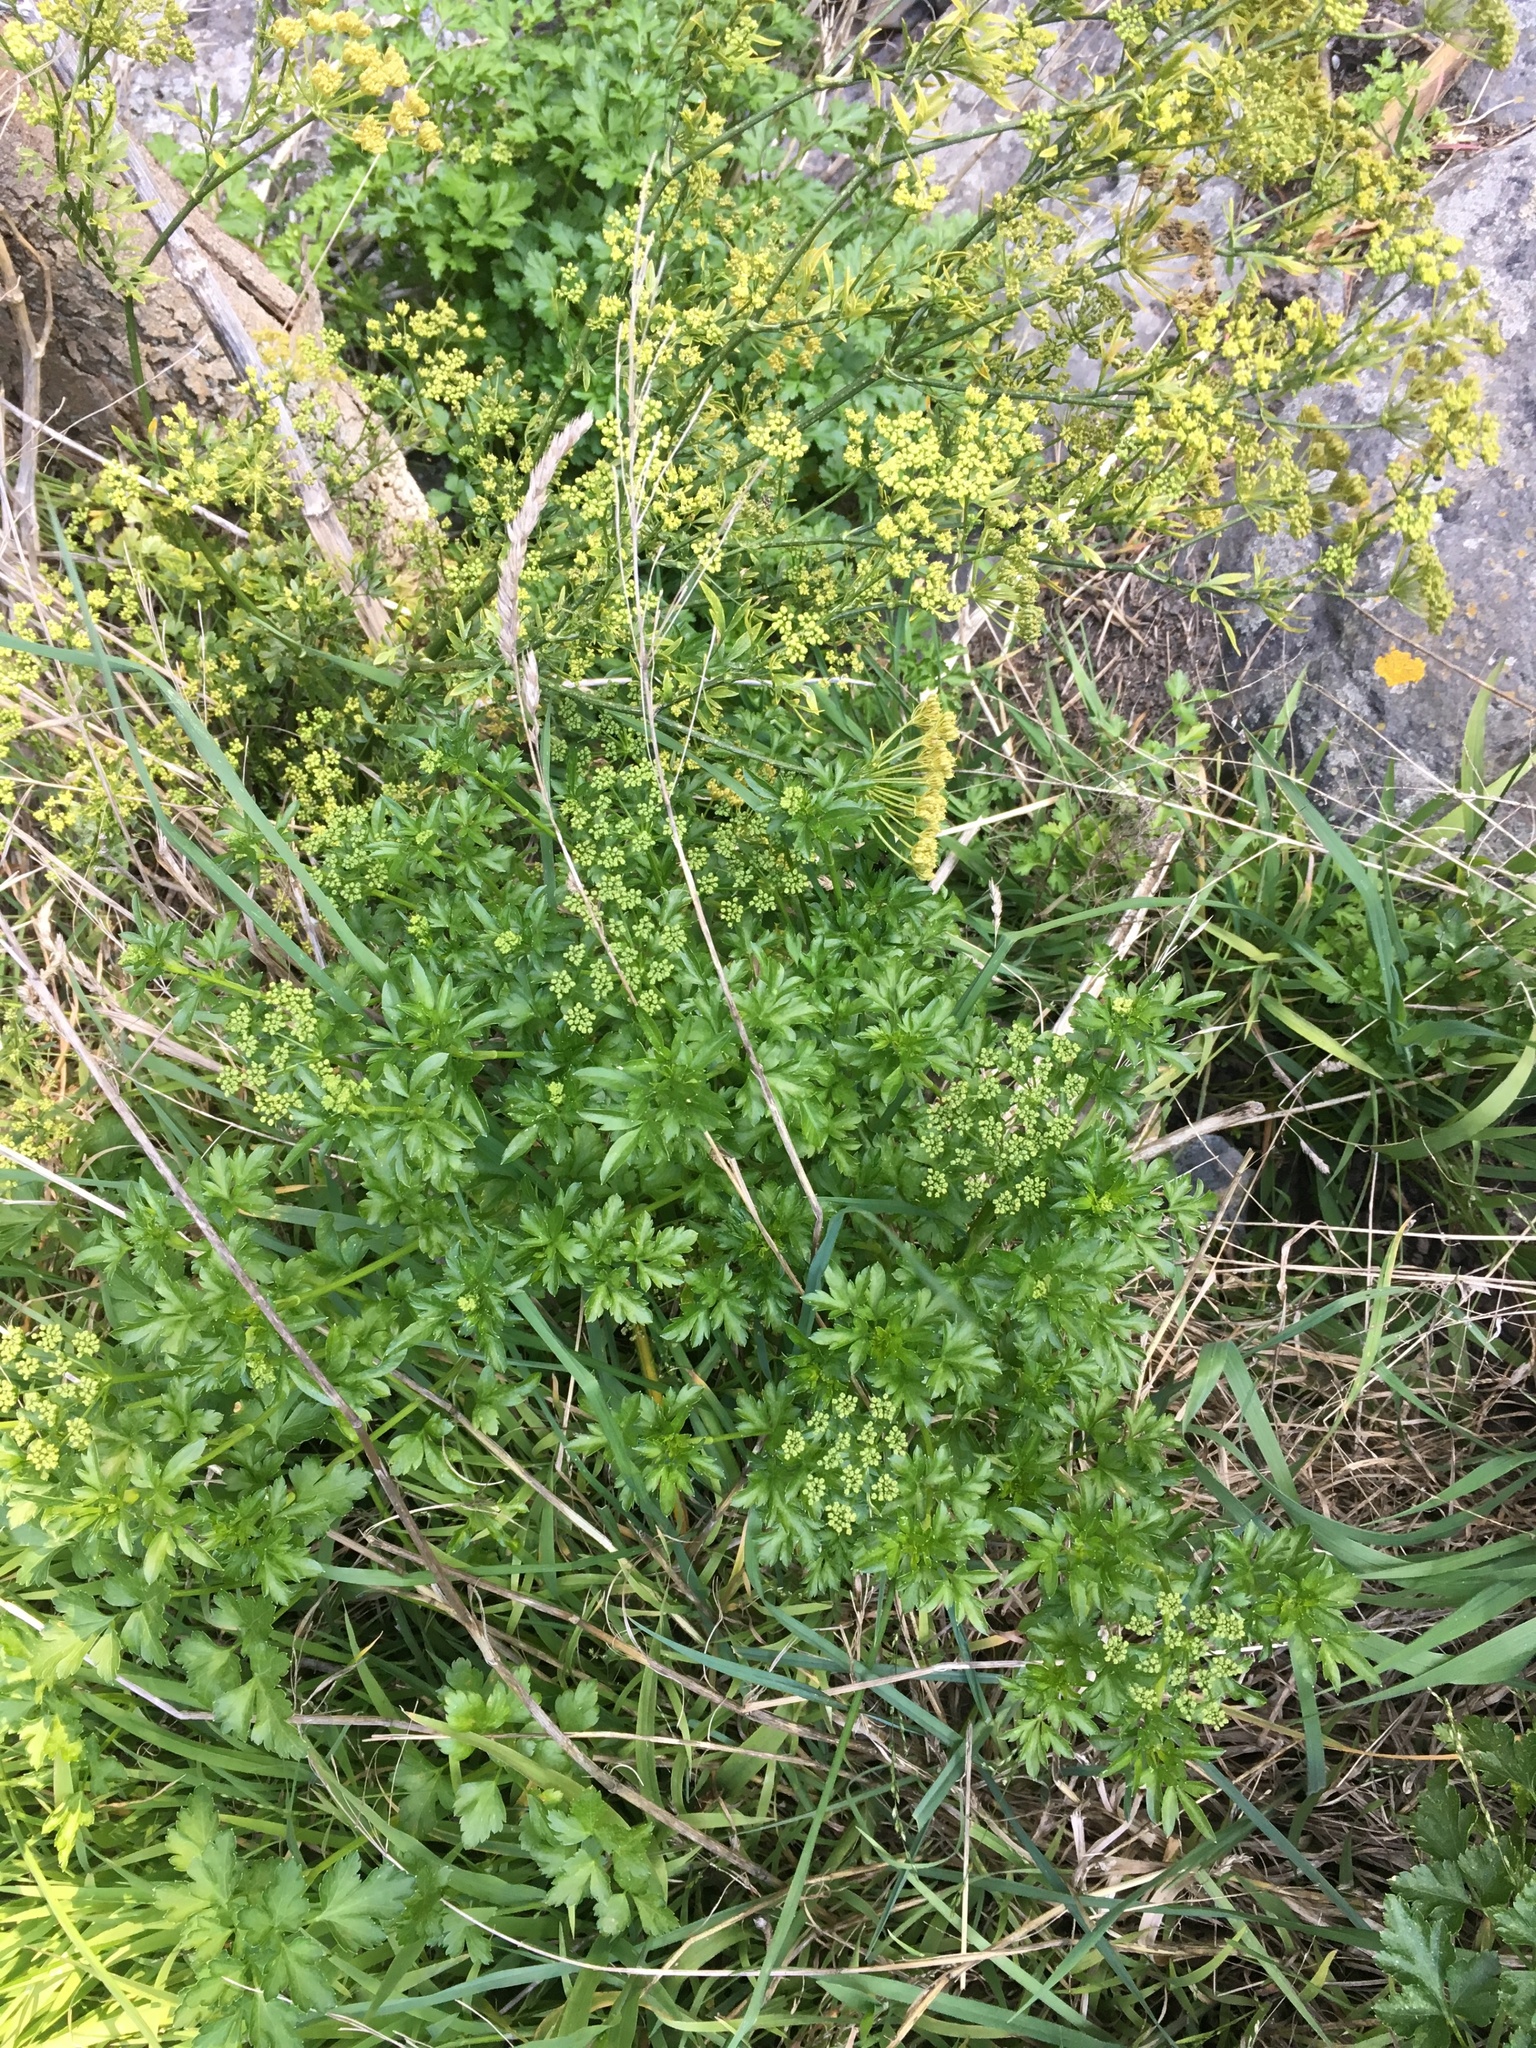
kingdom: Plantae
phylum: Tracheophyta
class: Magnoliopsida
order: Apiales
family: Apiaceae
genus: Petroselinum
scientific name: Petroselinum crispum
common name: Parsley
